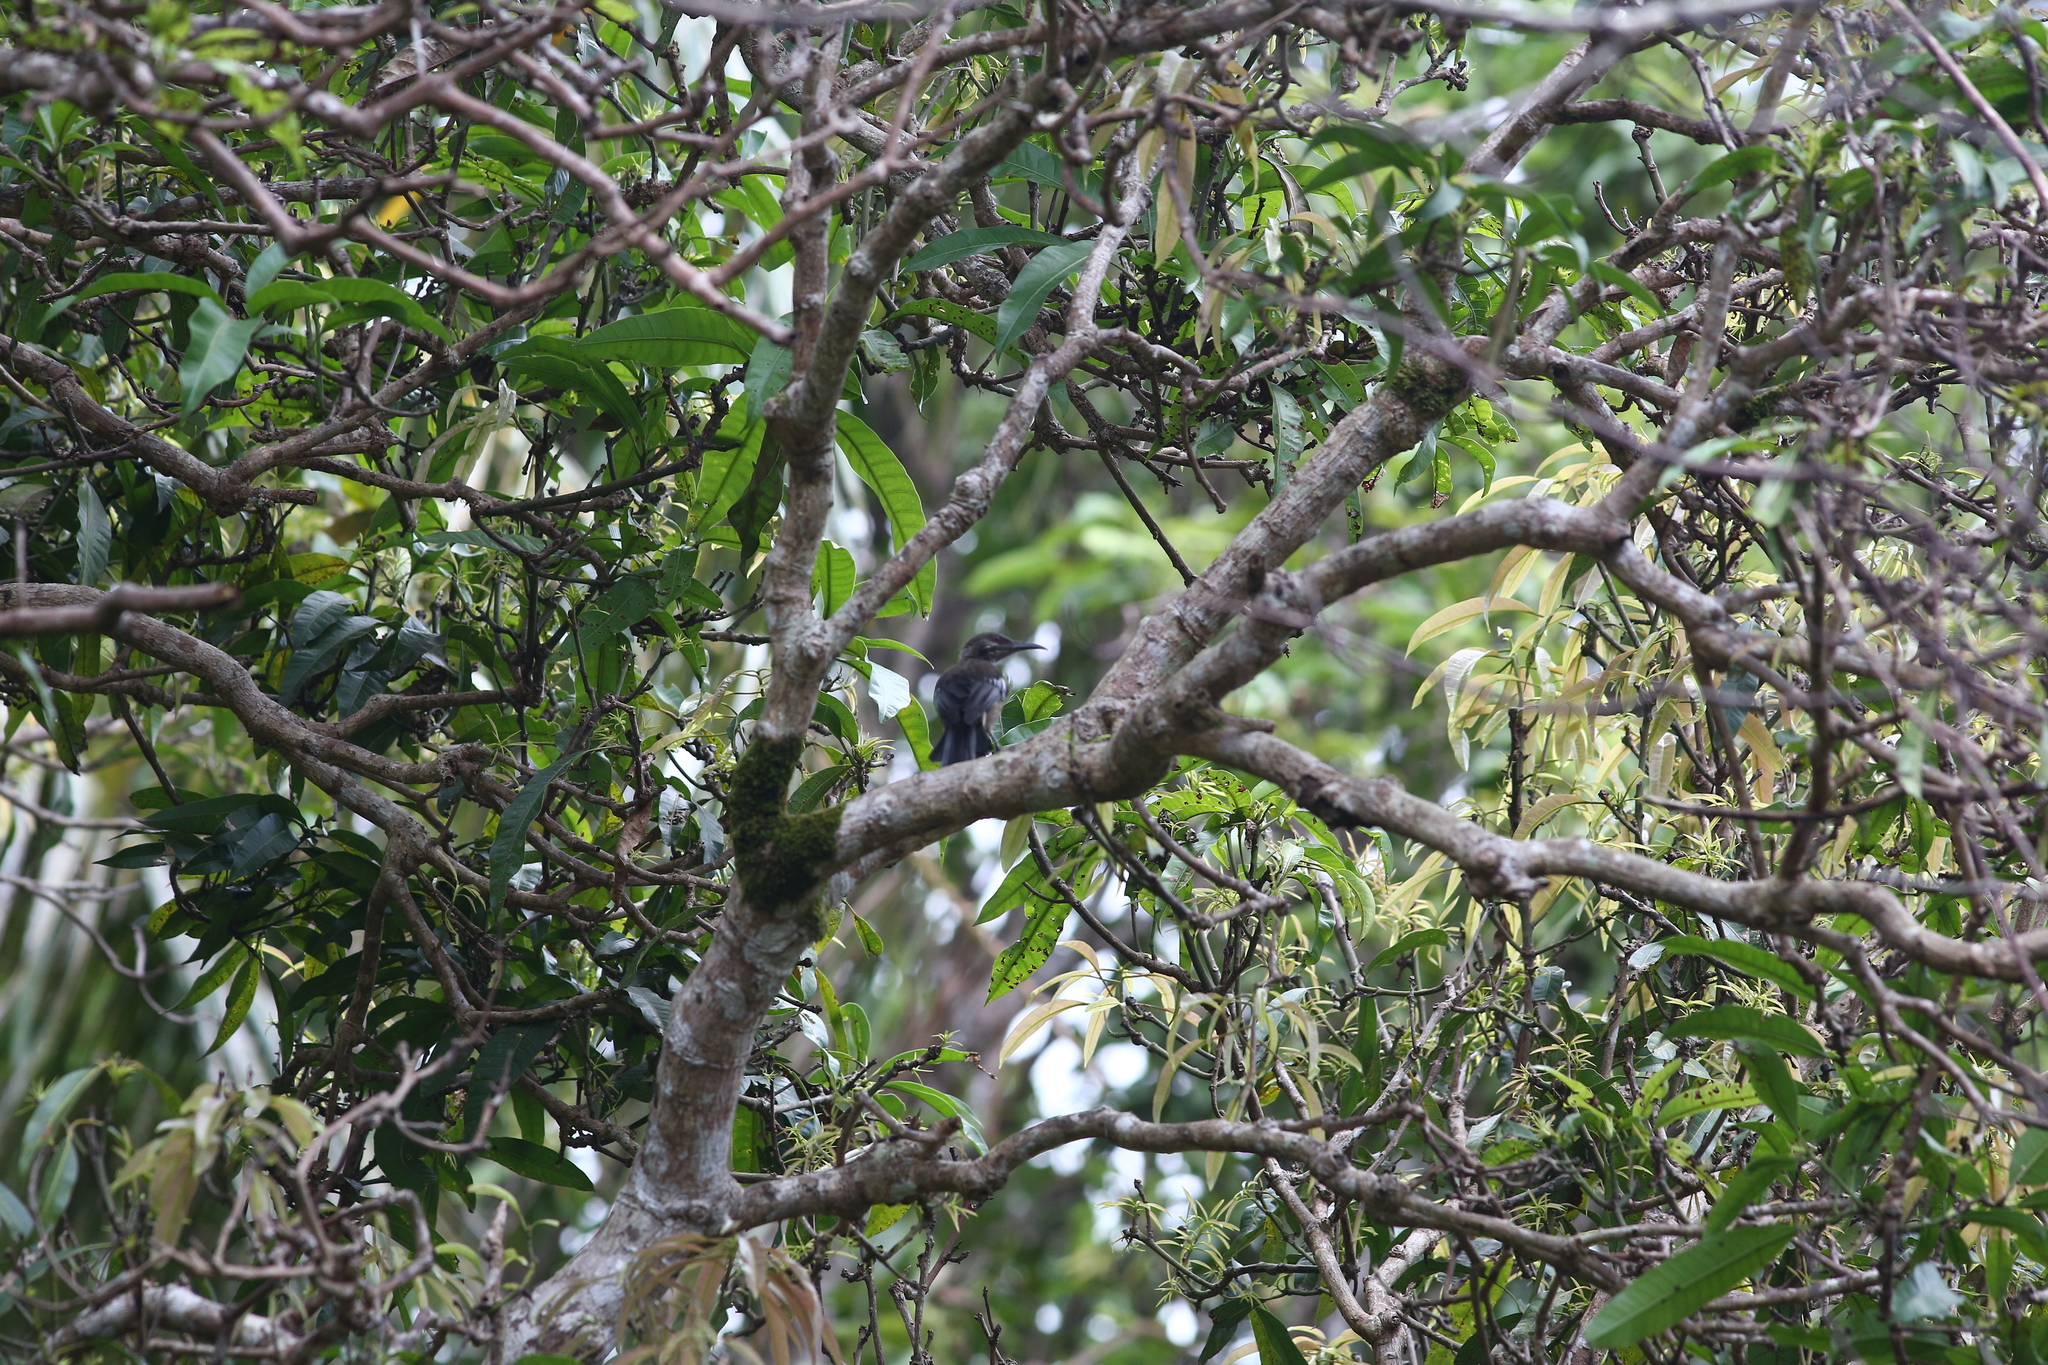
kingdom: Animalia
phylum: Chordata
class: Aves
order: Passeriformes
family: Meliphagidae
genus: Philemon
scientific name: Philemon diemenensis
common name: New caledonian friarbird
